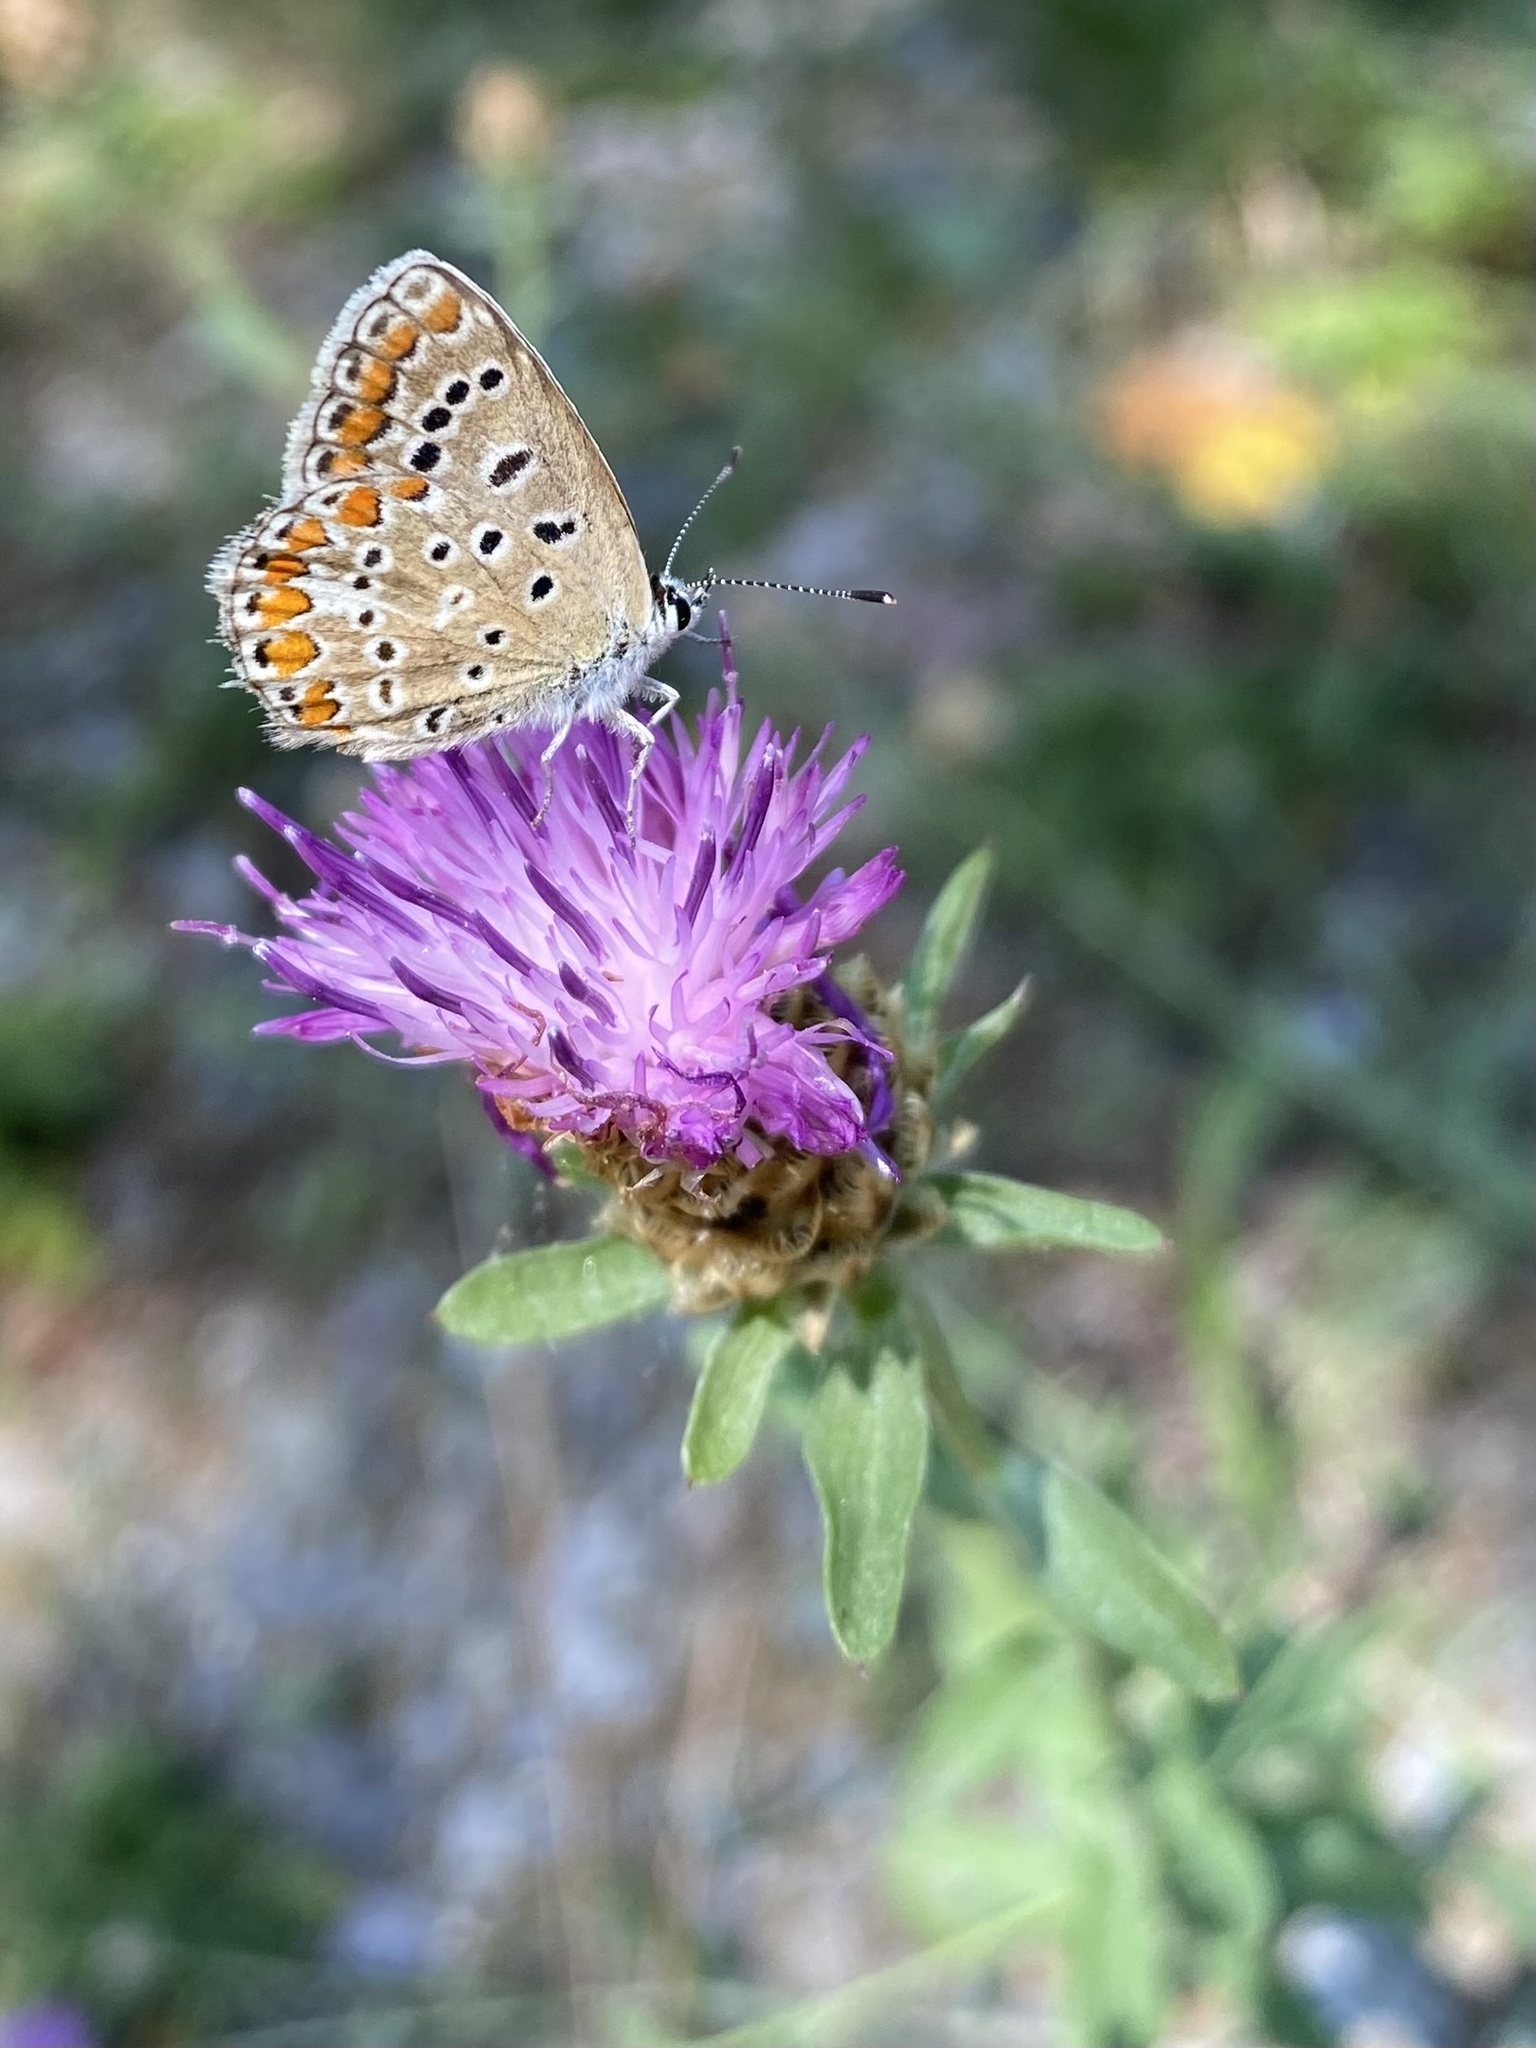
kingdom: Animalia
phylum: Arthropoda
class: Insecta
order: Lepidoptera
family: Lycaenidae
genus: Polyommatus
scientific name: Polyommatus icarus
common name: Common blue
